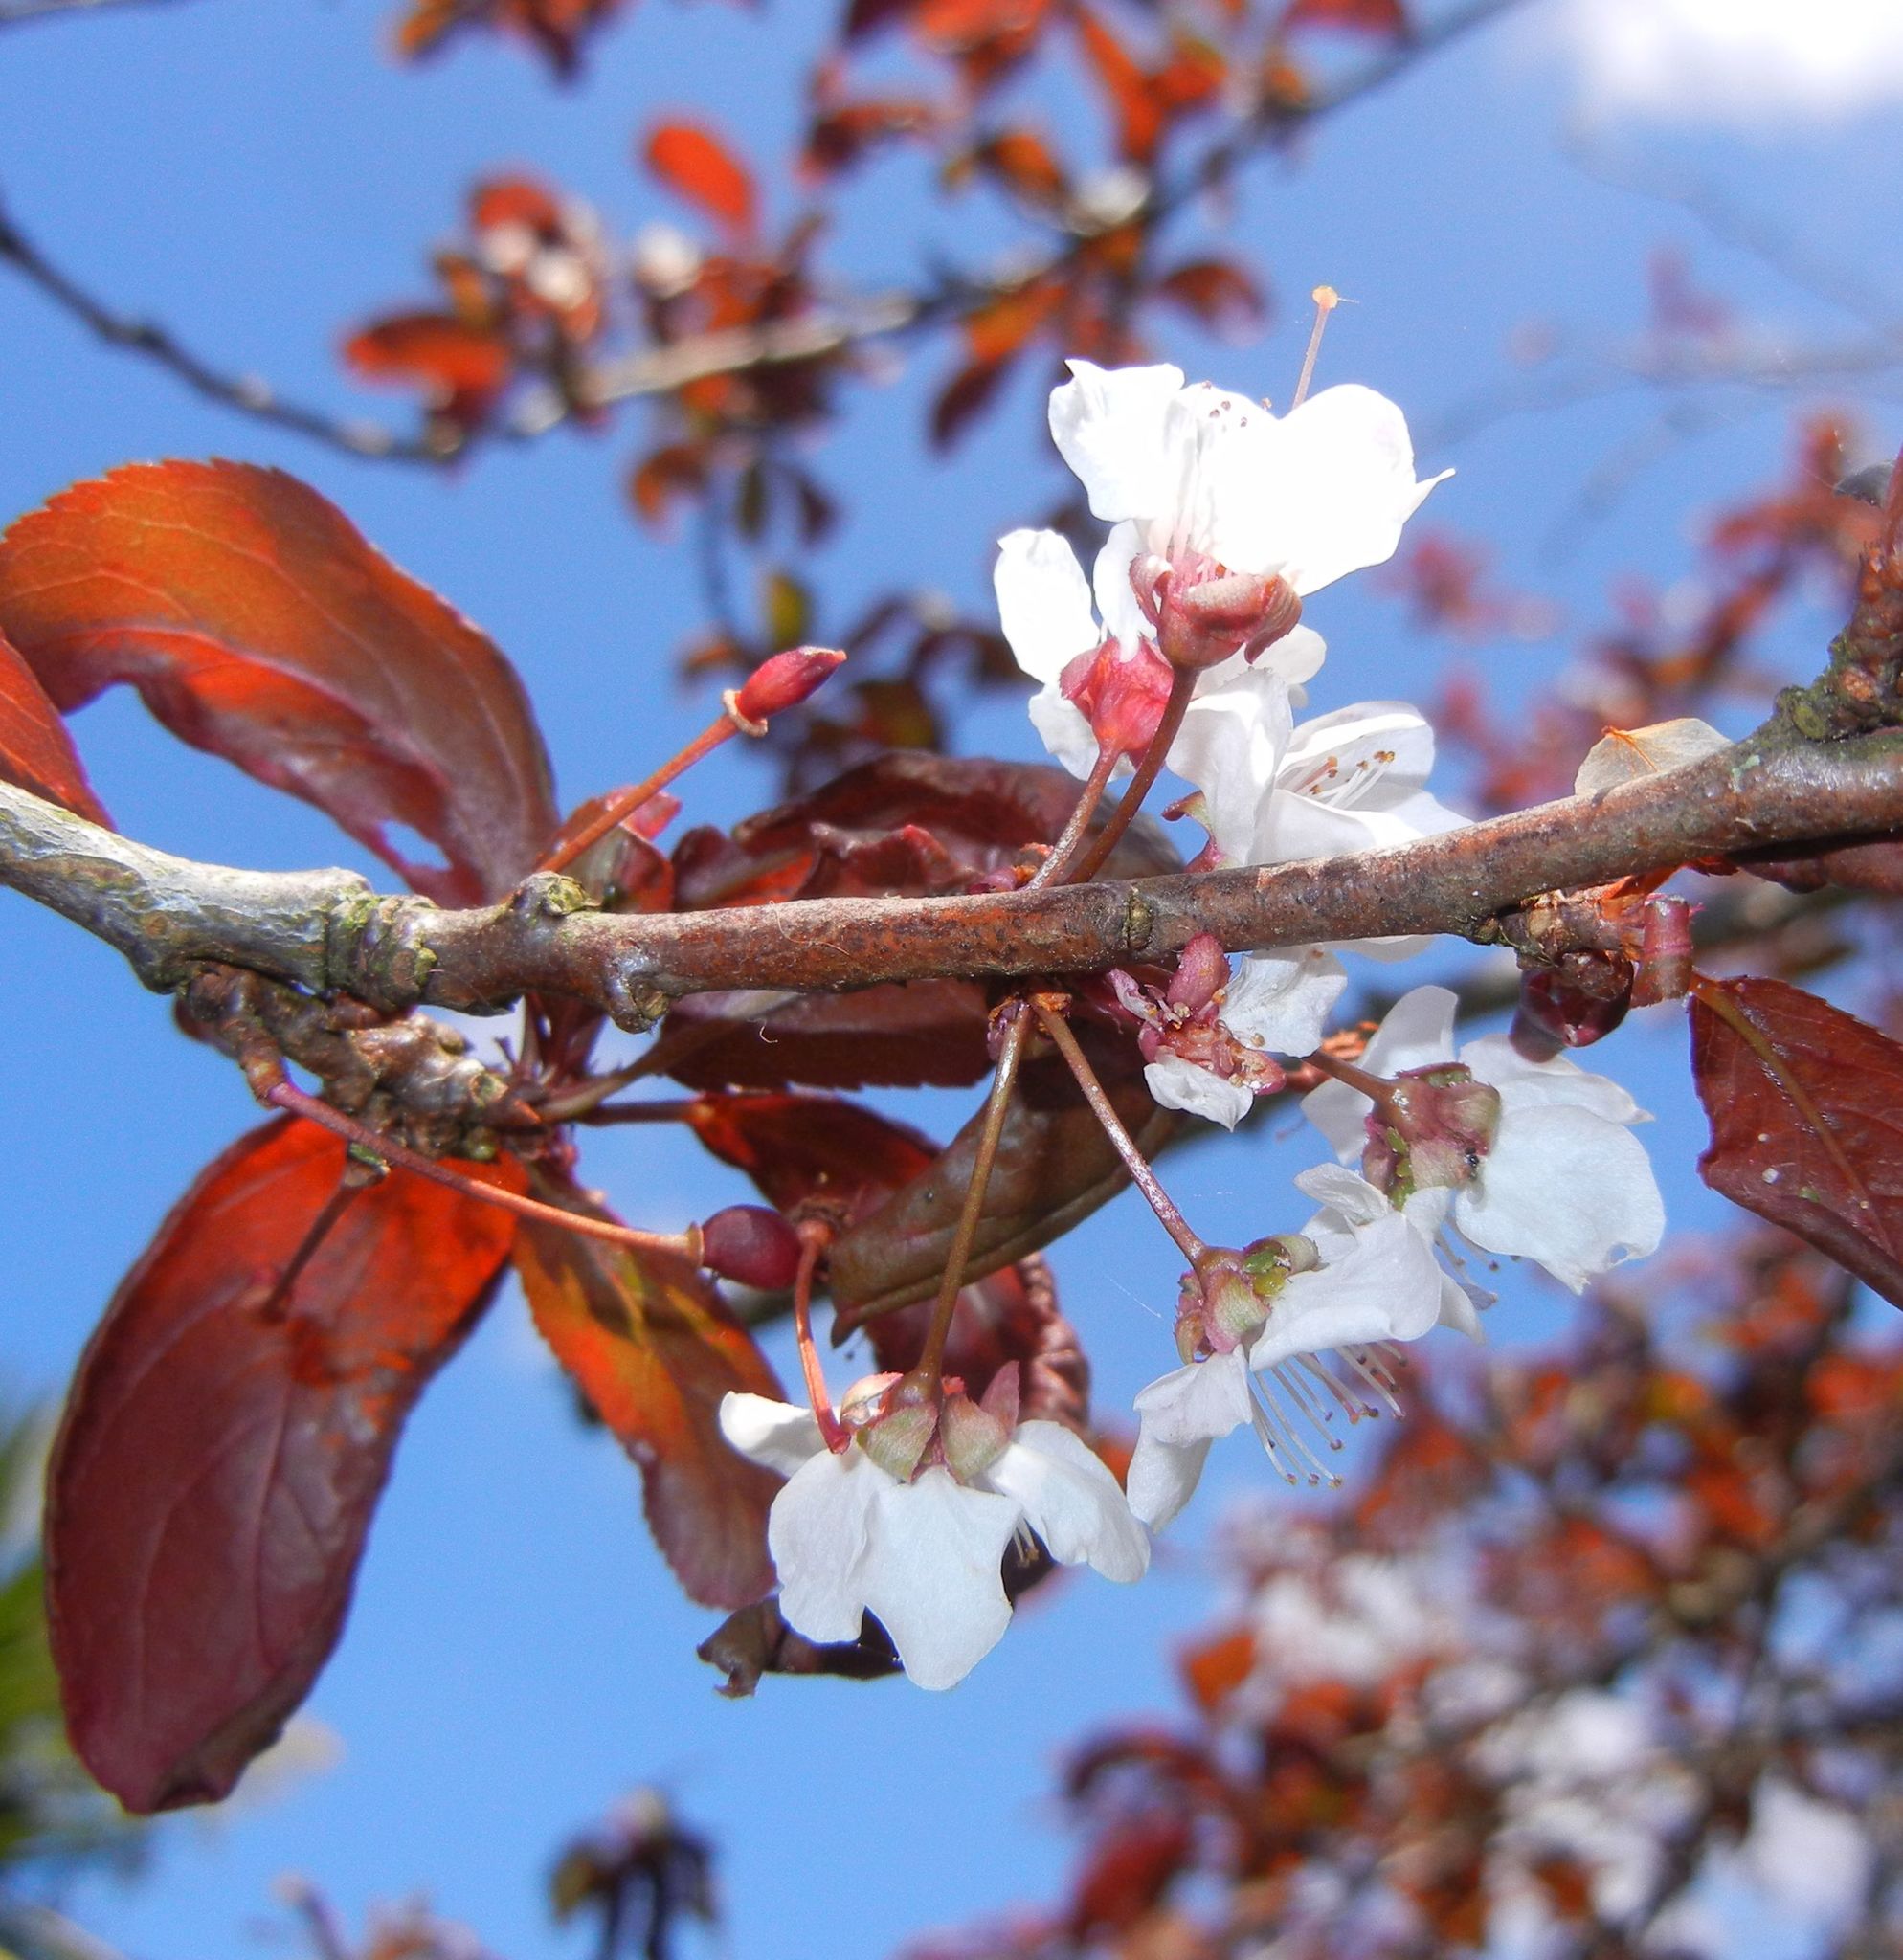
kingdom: Plantae
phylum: Tracheophyta
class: Magnoliopsida
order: Rosales
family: Rosaceae
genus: Prunus
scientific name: Prunus cerasifera
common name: Cherry plum
